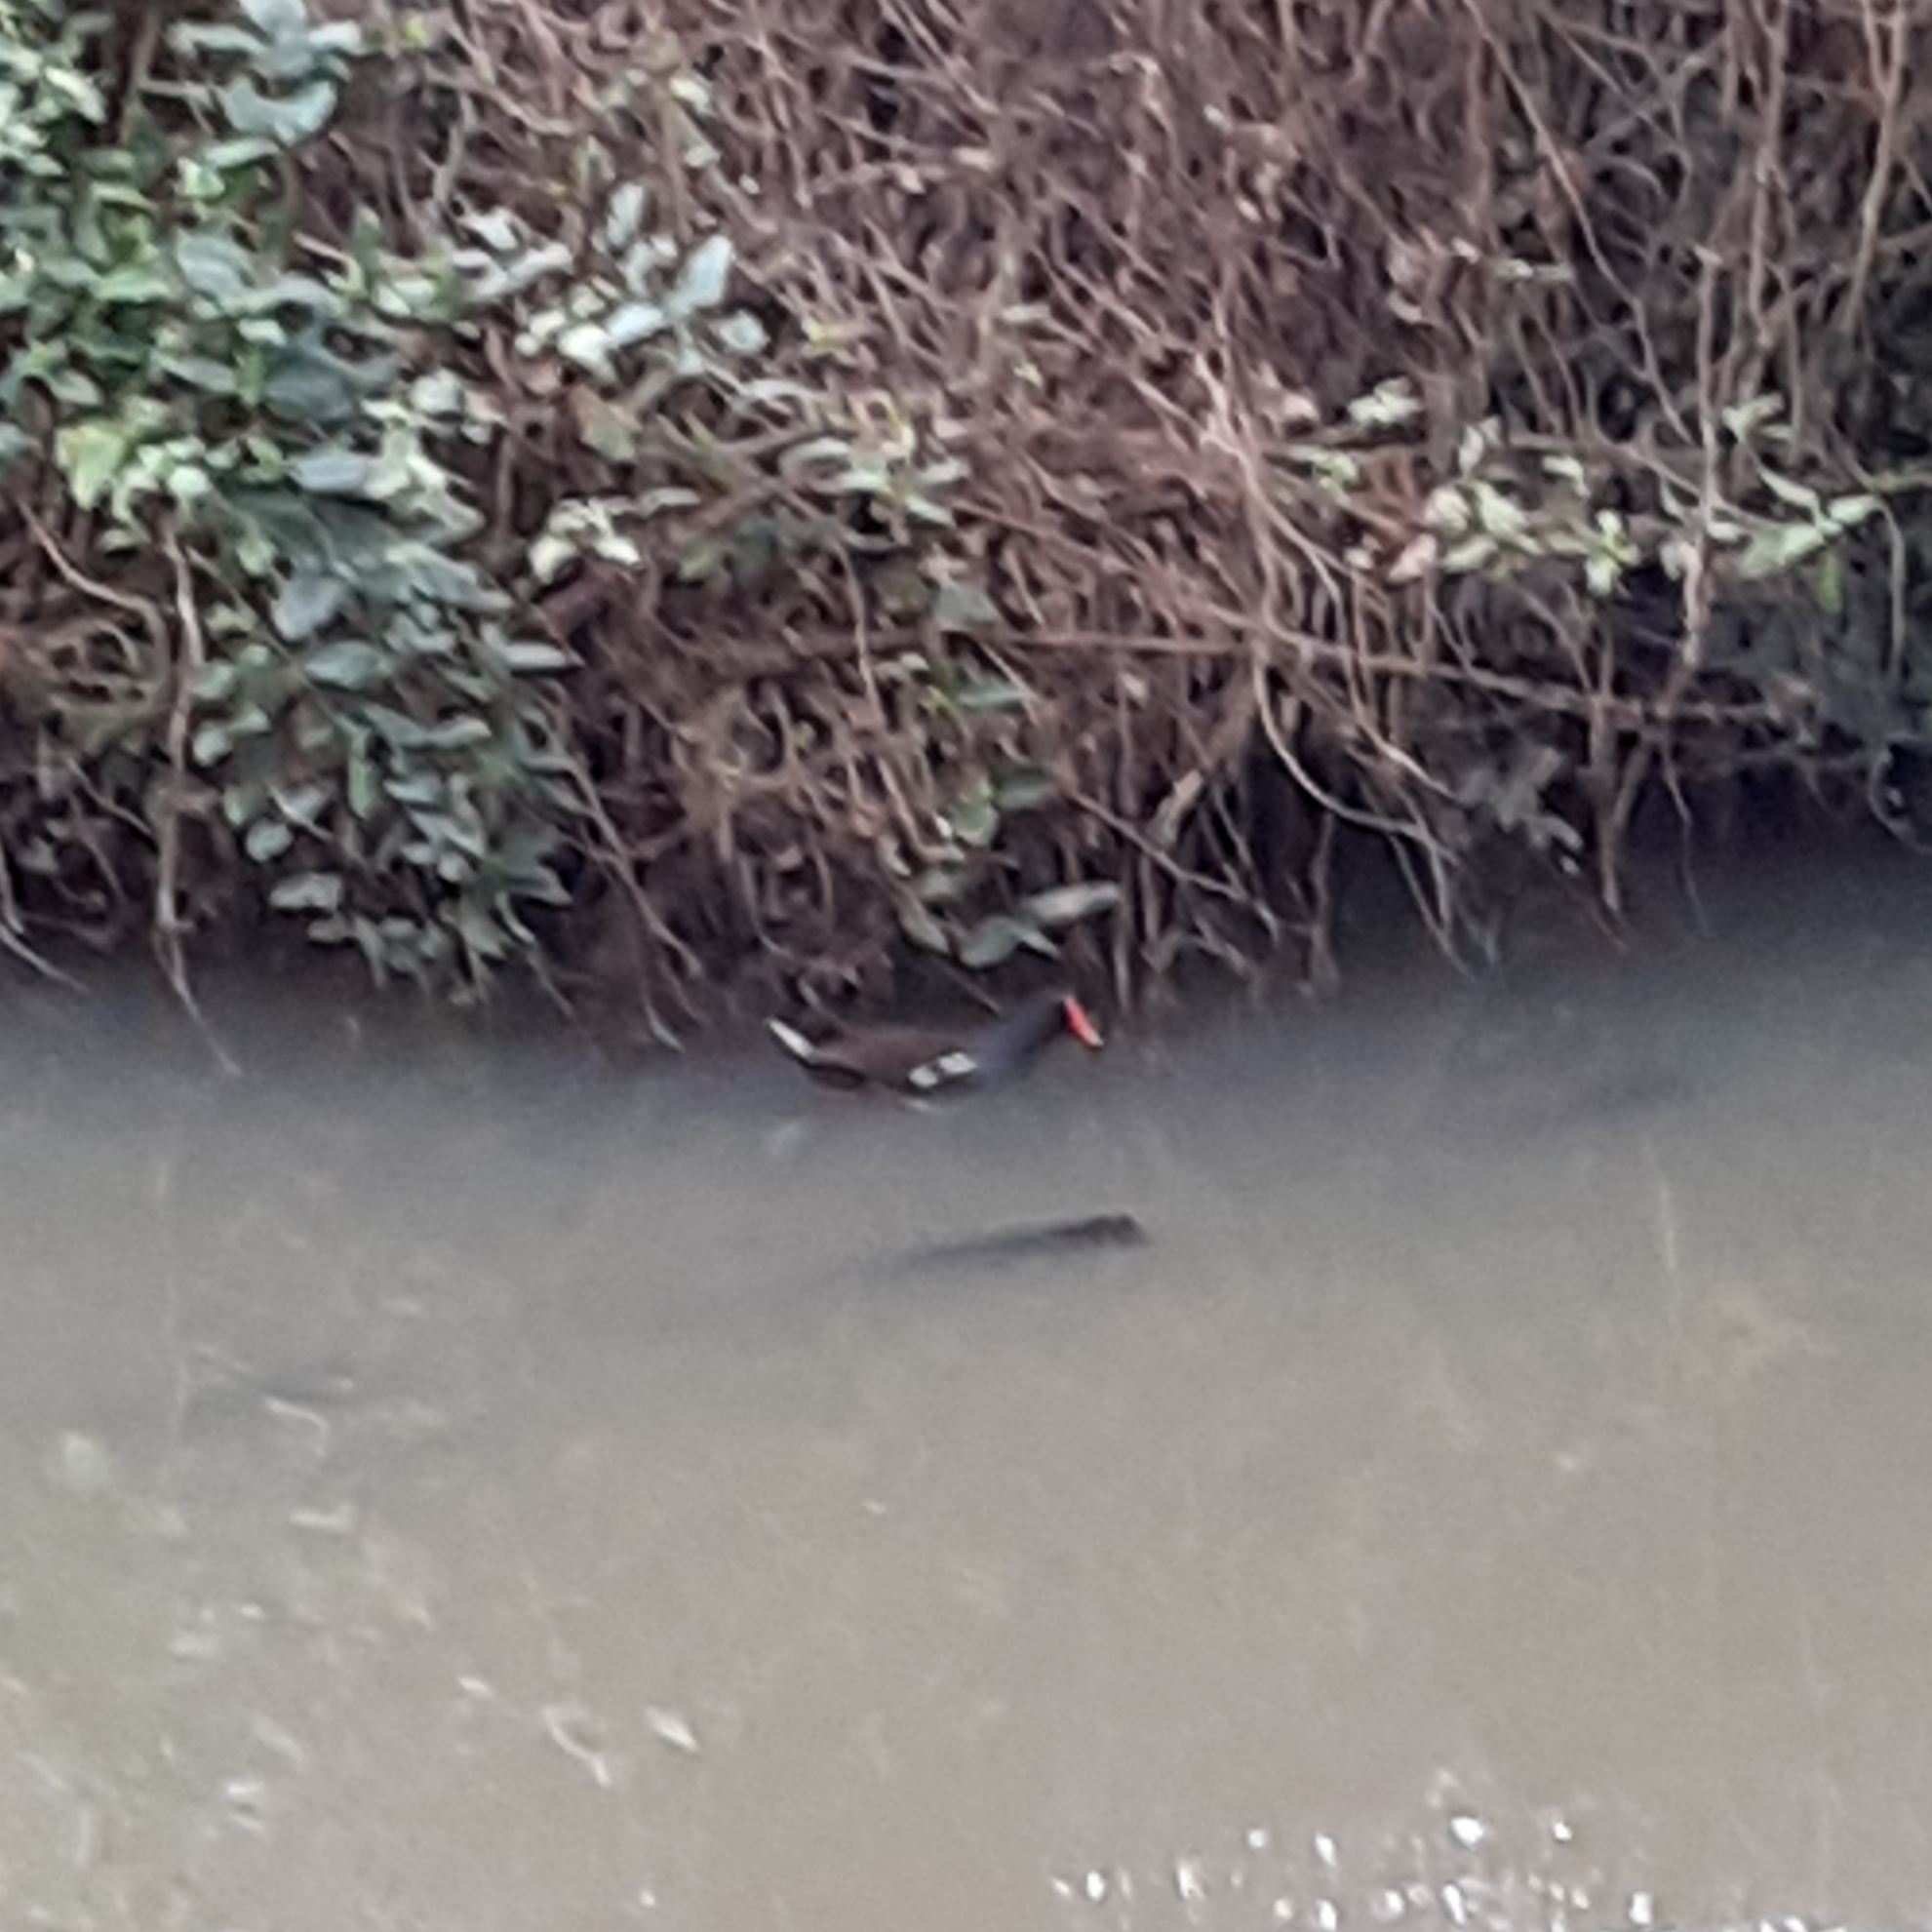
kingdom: Animalia
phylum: Chordata
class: Aves
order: Gruiformes
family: Rallidae
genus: Gallinula
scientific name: Gallinula chloropus
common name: Common moorhen
